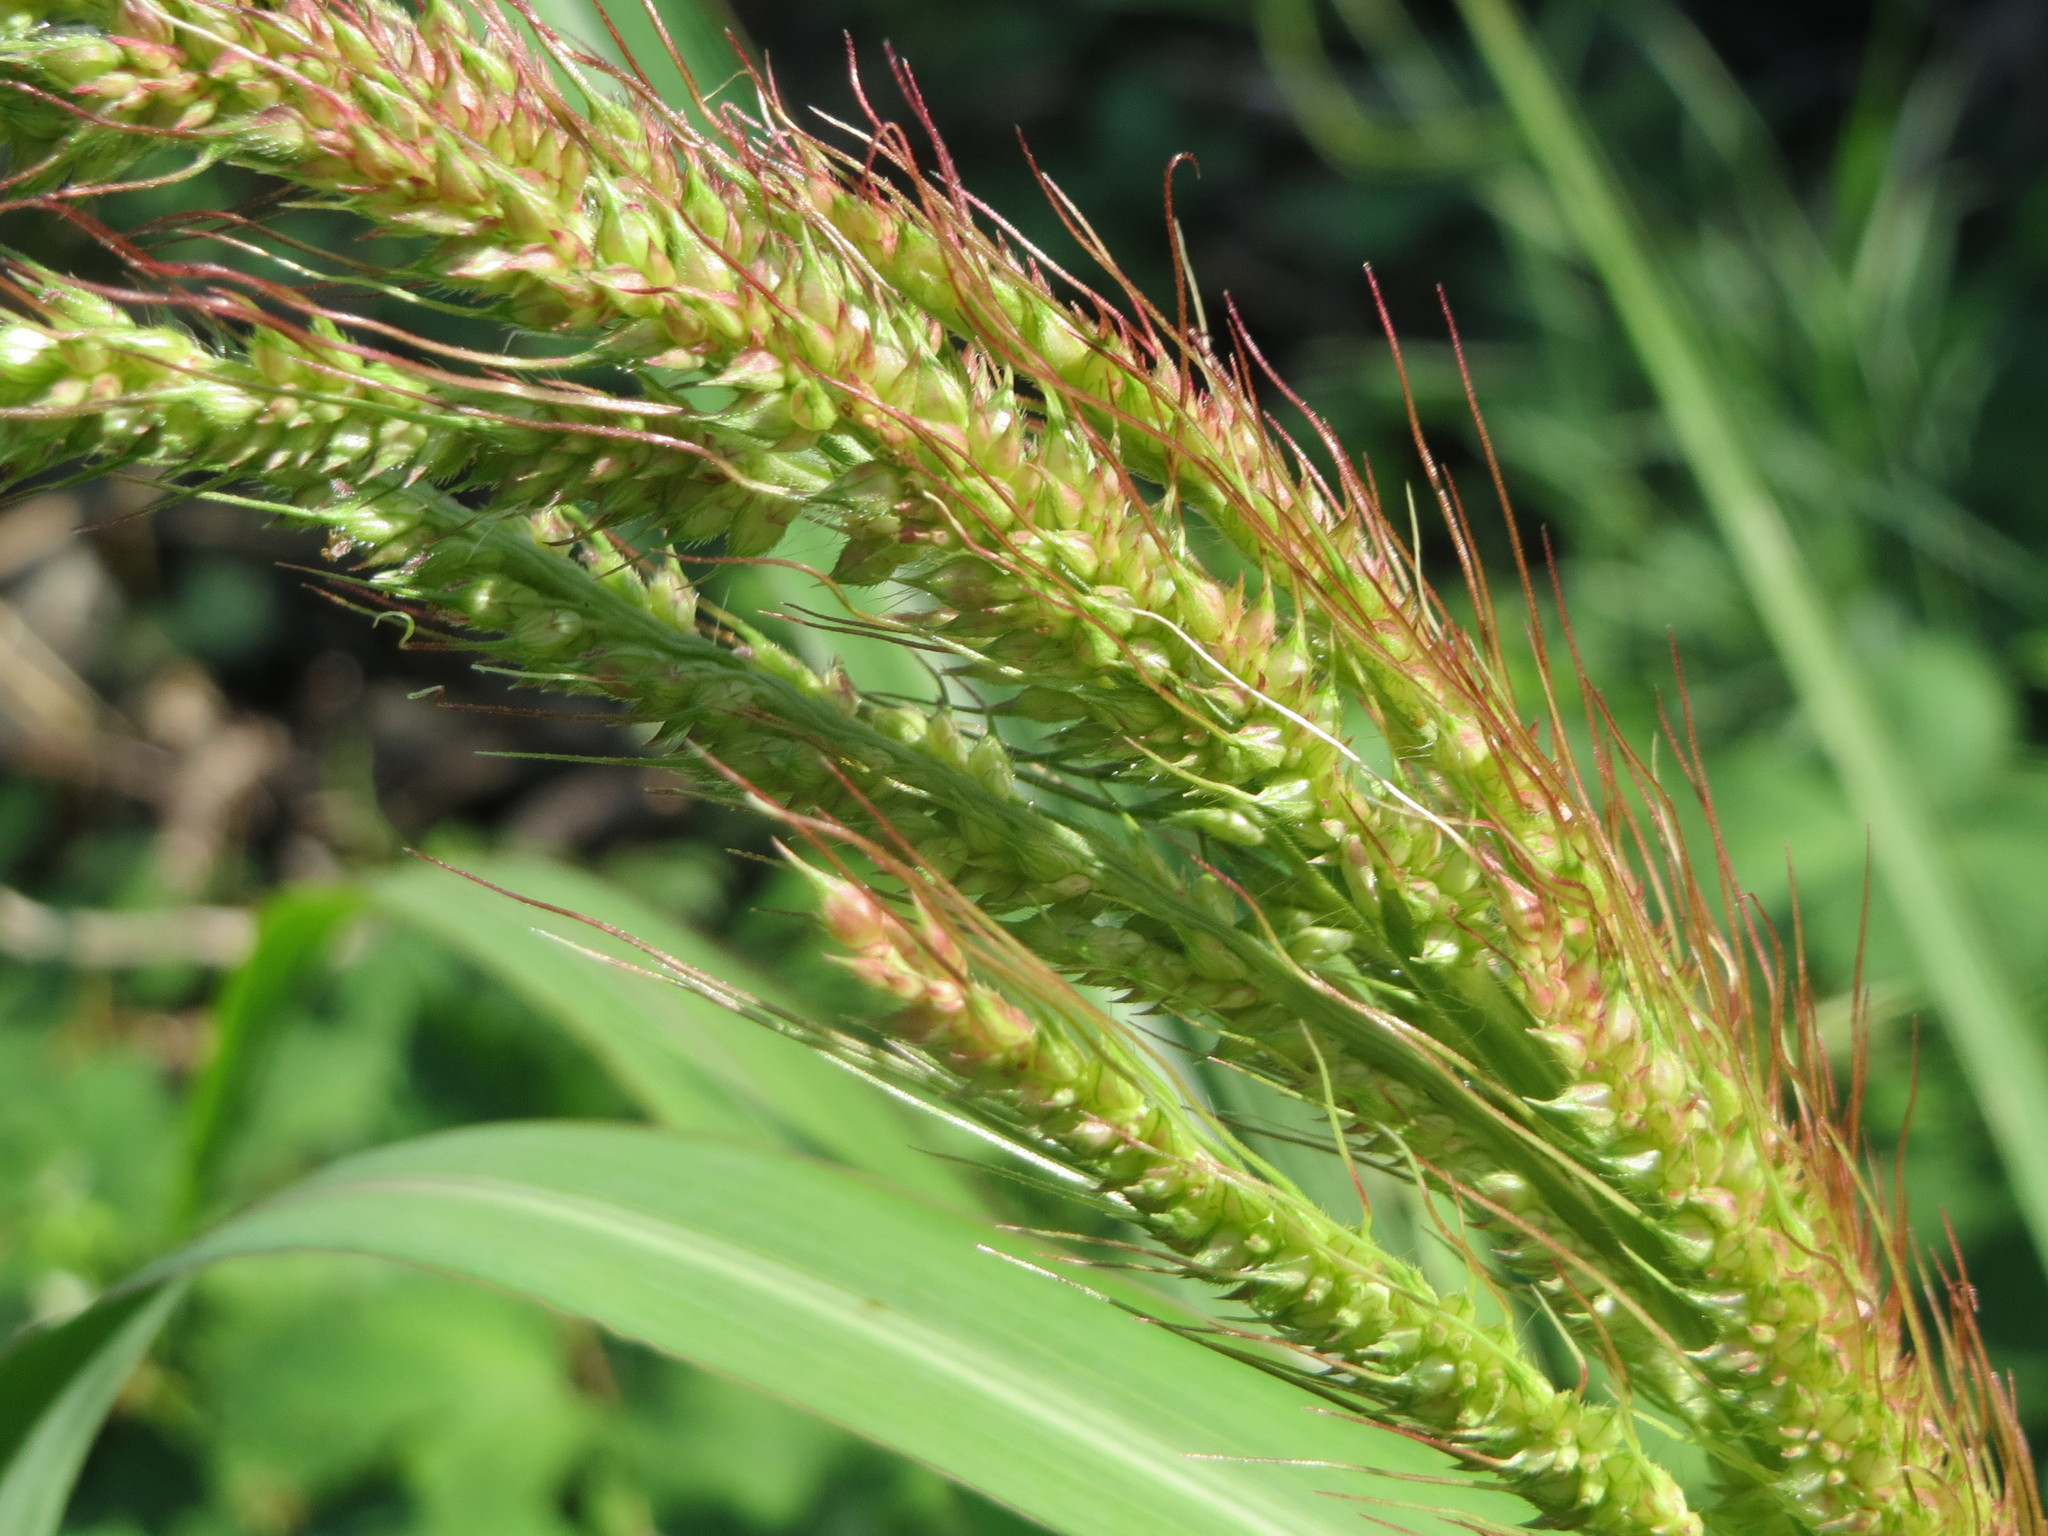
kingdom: Plantae
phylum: Tracheophyta
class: Liliopsida
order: Poales
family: Poaceae
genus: Echinochloa
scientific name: Echinochloa crus-galli
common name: Cockspur
